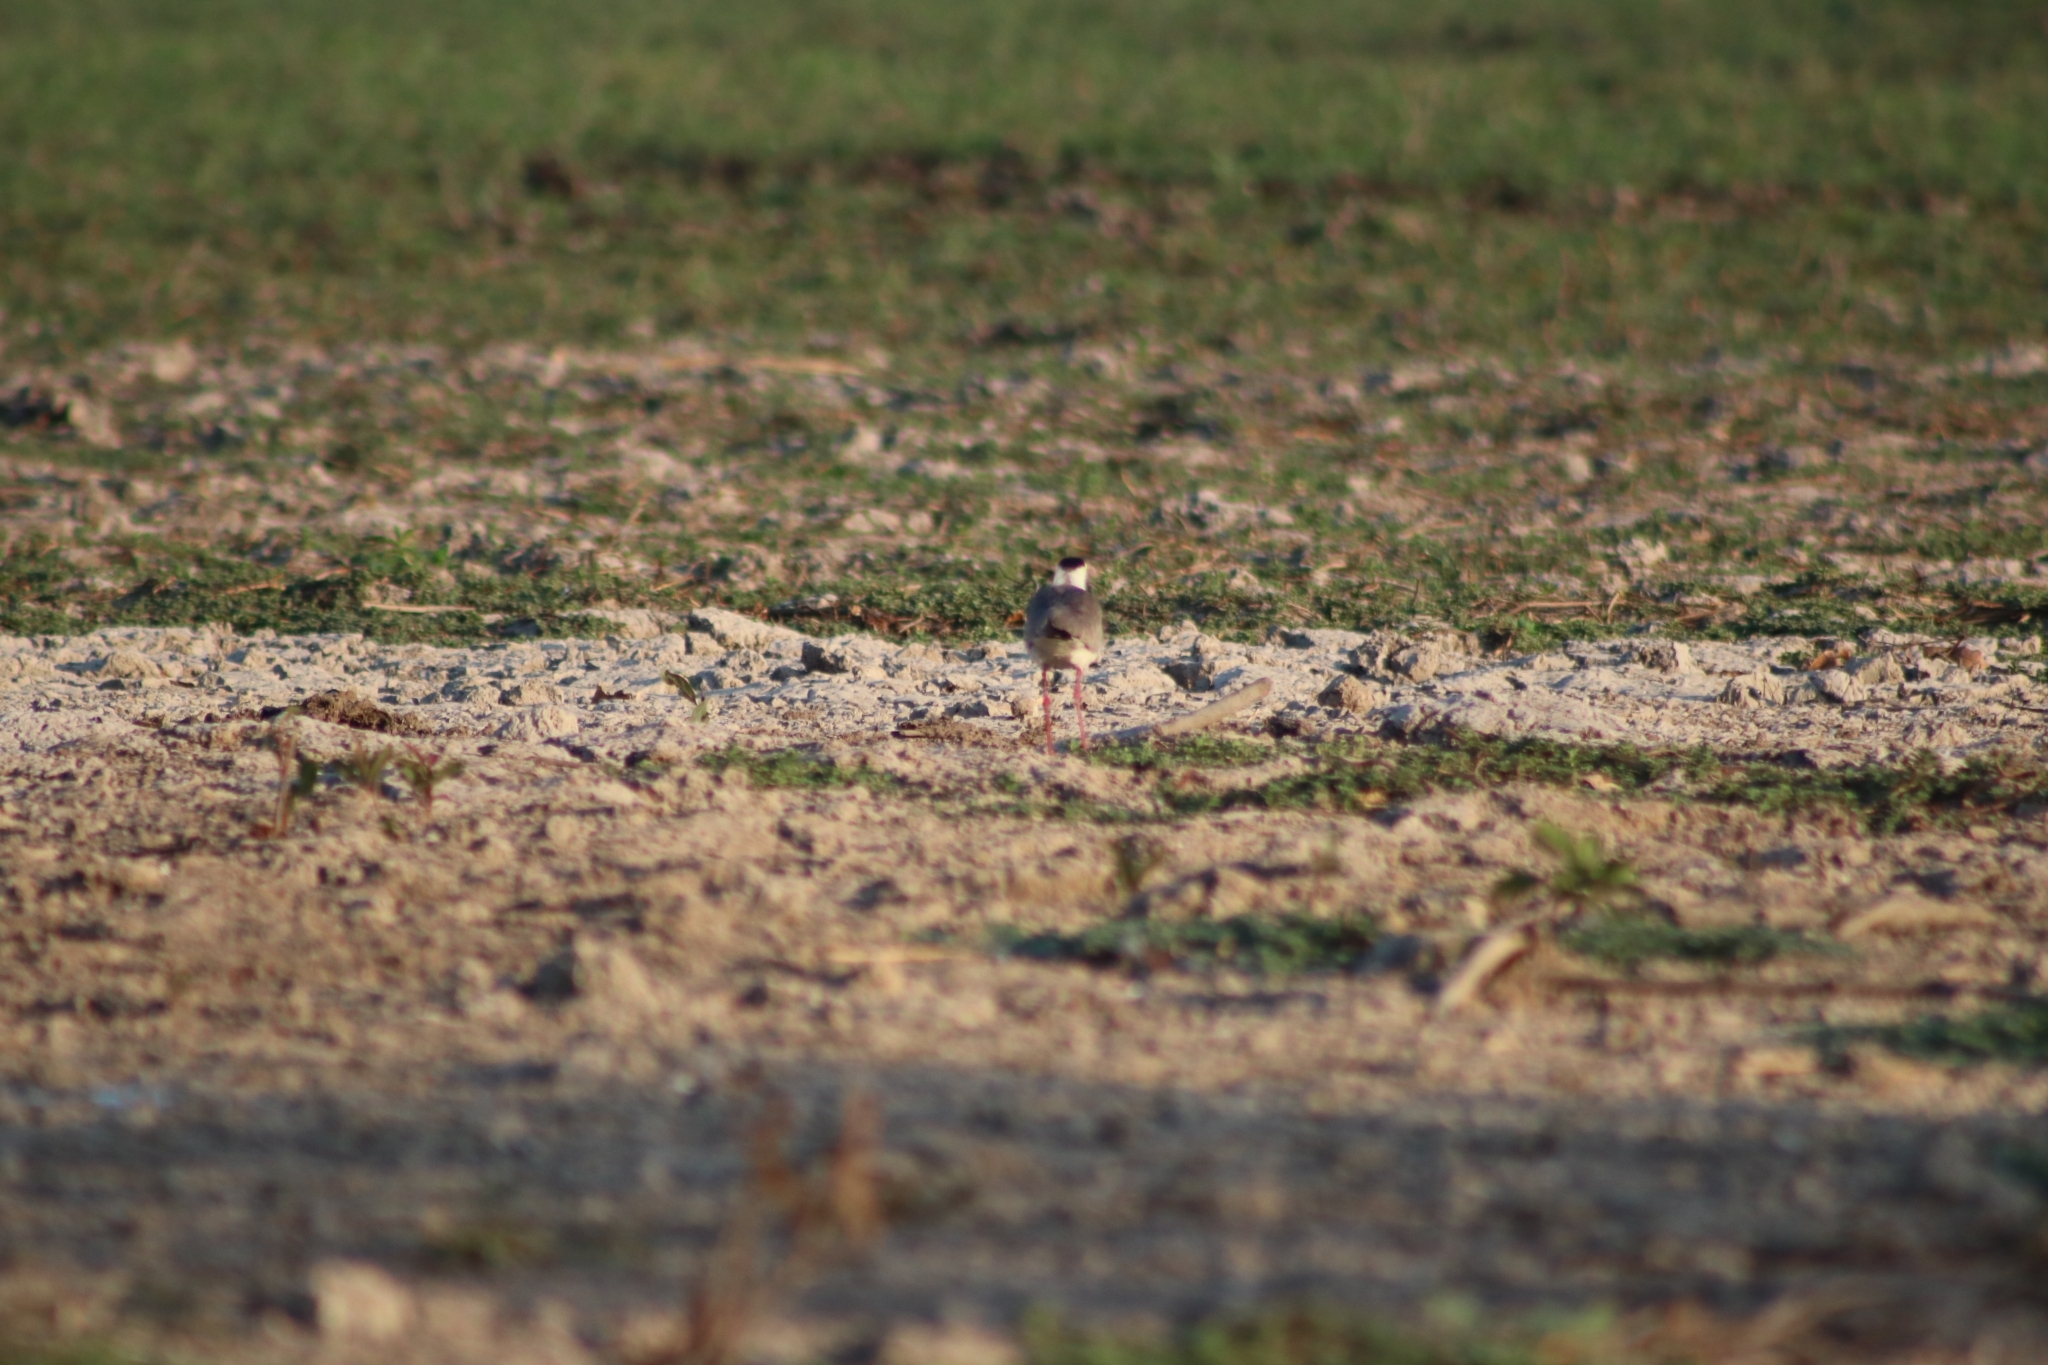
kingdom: Animalia
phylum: Chordata
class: Aves
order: Charadriiformes
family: Charadriidae
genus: Vanellus
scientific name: Vanellus miles
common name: Masked lapwing
